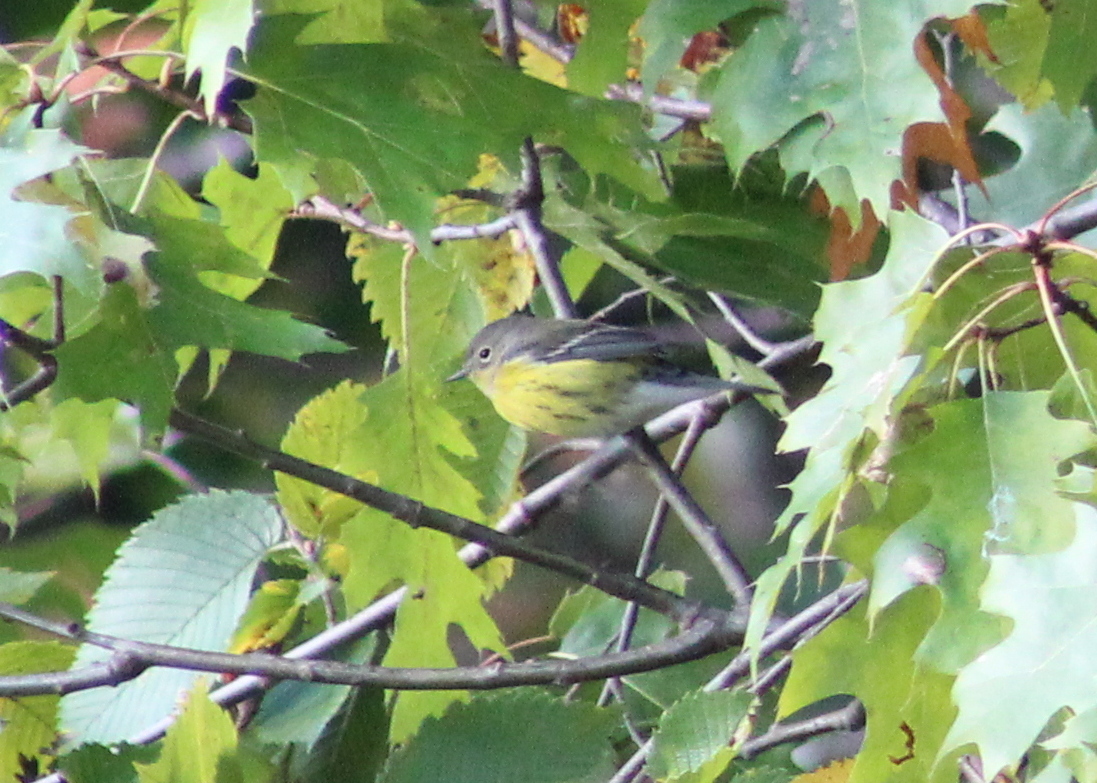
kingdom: Animalia
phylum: Chordata
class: Aves
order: Passeriformes
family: Parulidae
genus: Setophaga
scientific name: Setophaga magnolia
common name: Magnolia warbler
